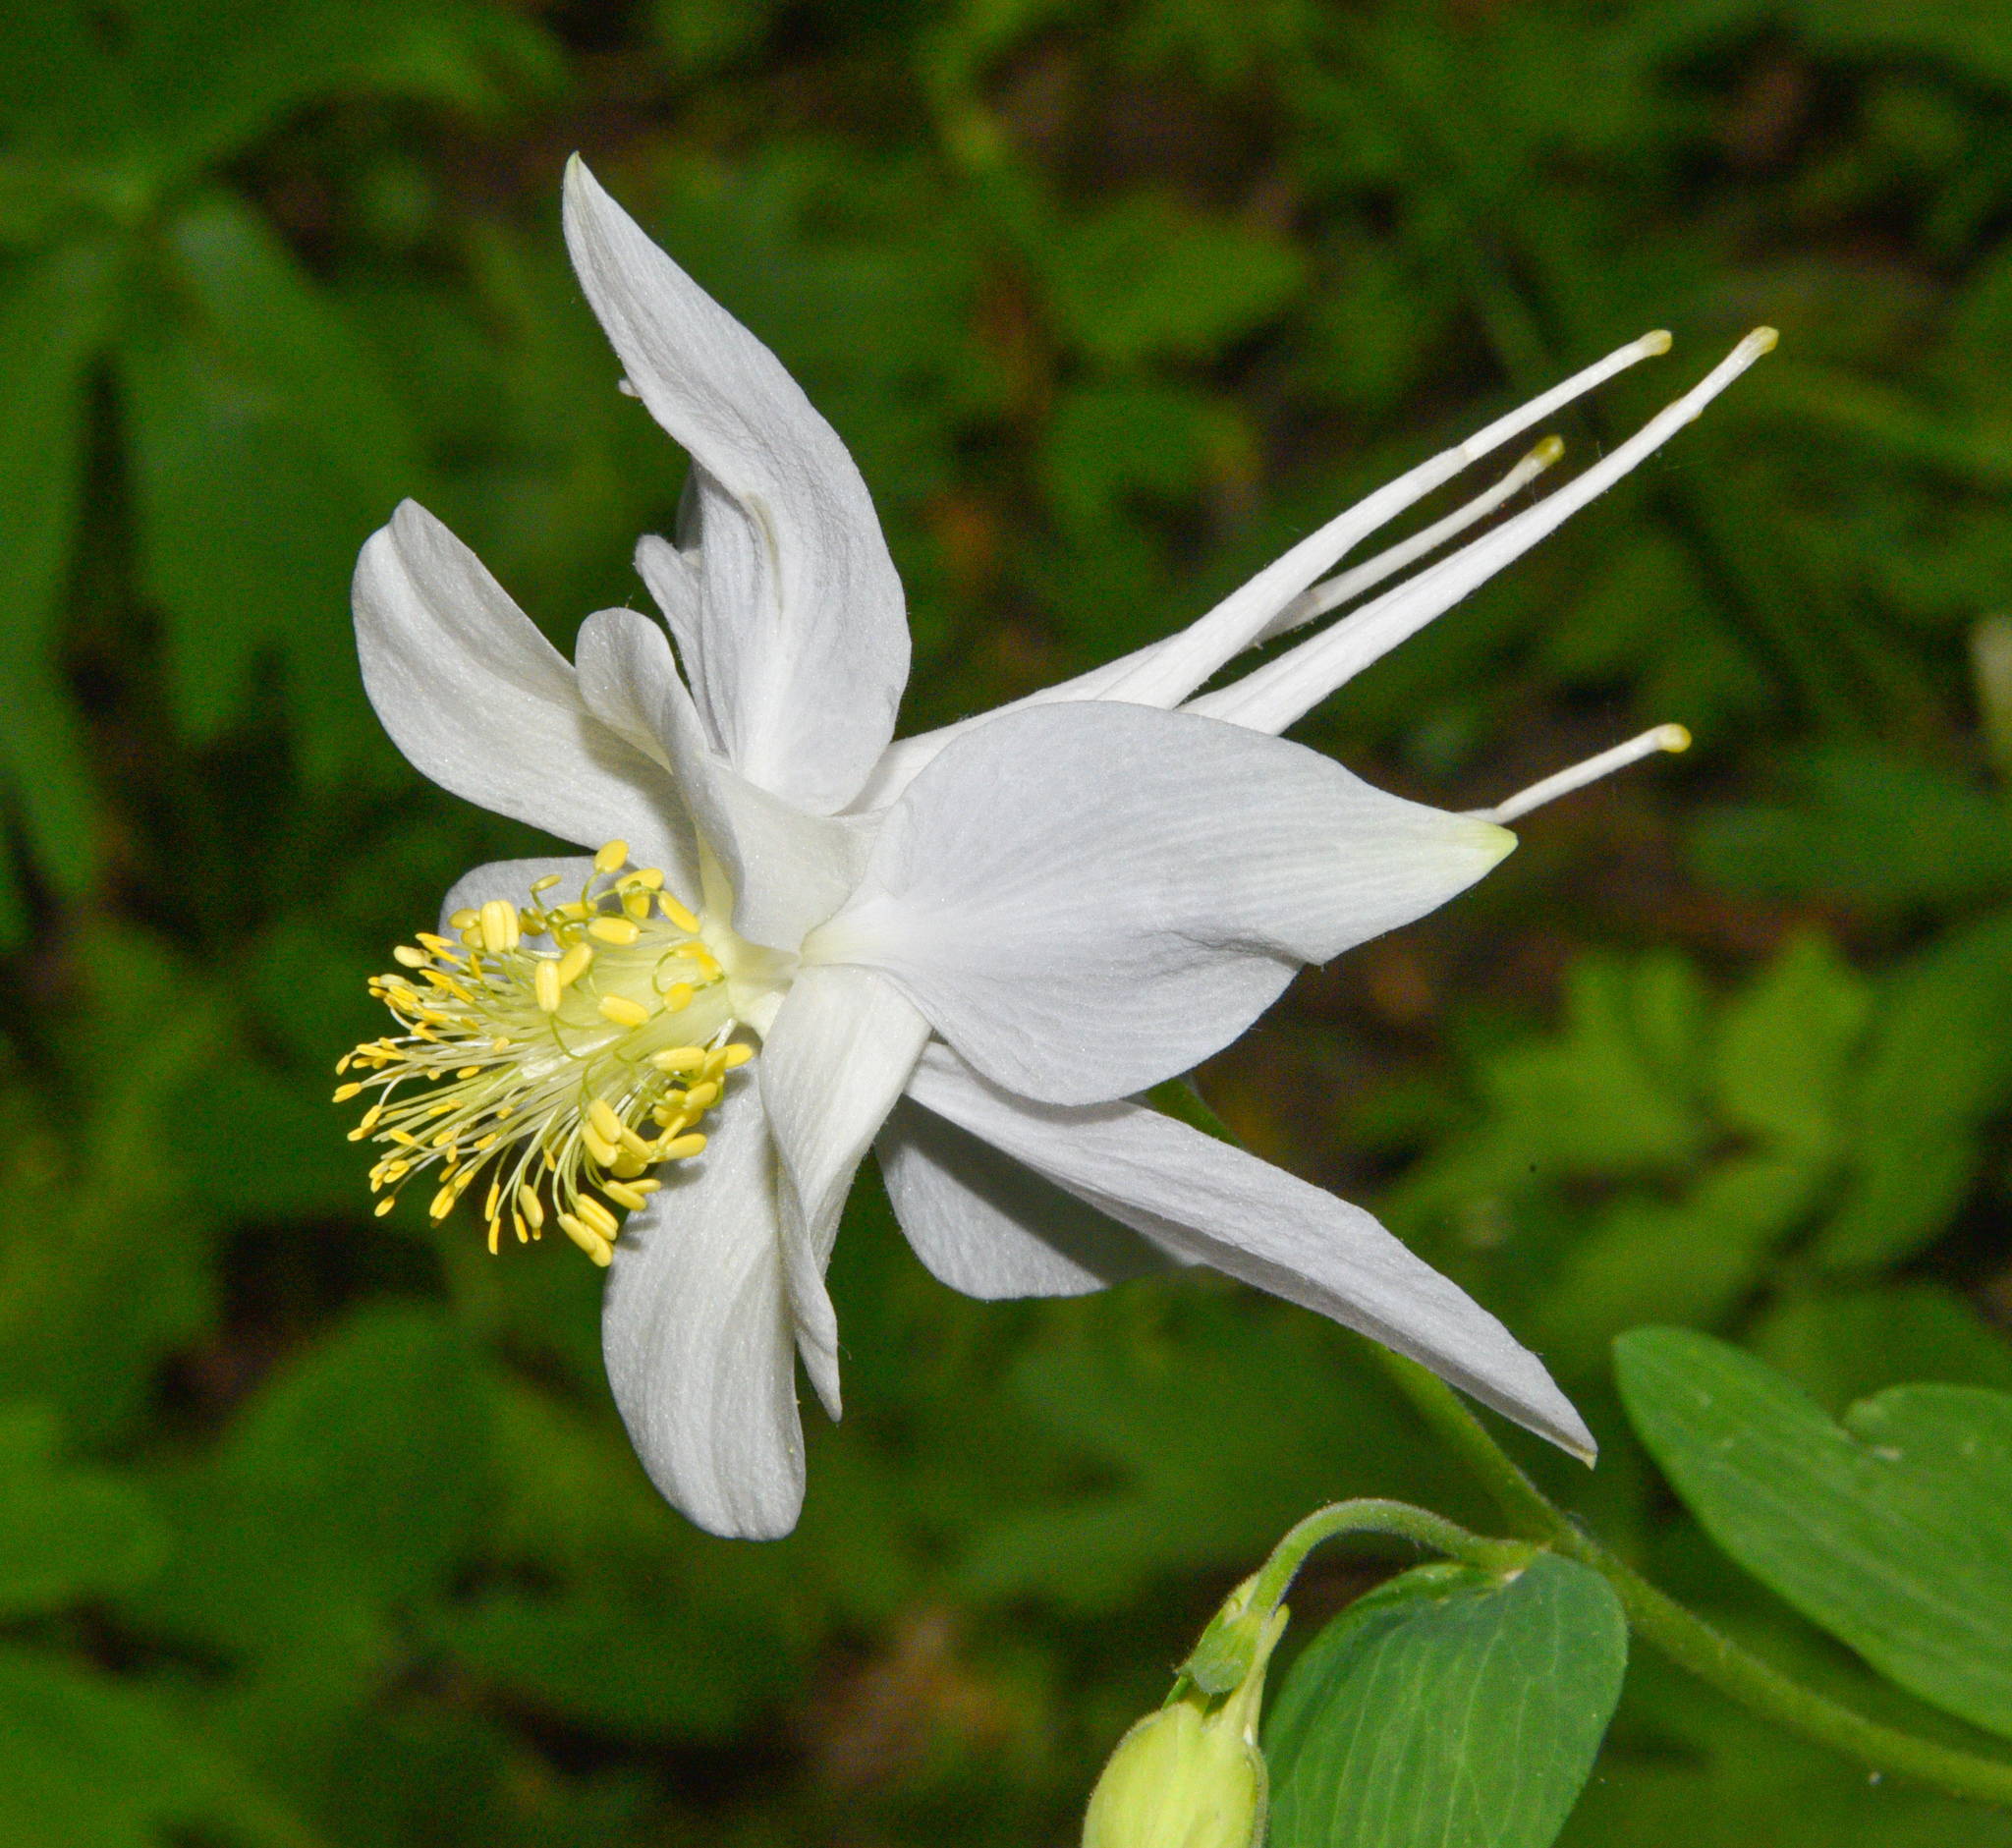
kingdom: Plantae
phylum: Tracheophyta
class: Magnoliopsida
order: Ranunculales
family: Ranunculaceae
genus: Aquilegia
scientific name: Aquilegia coerulea
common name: Rocky mountain columbine
